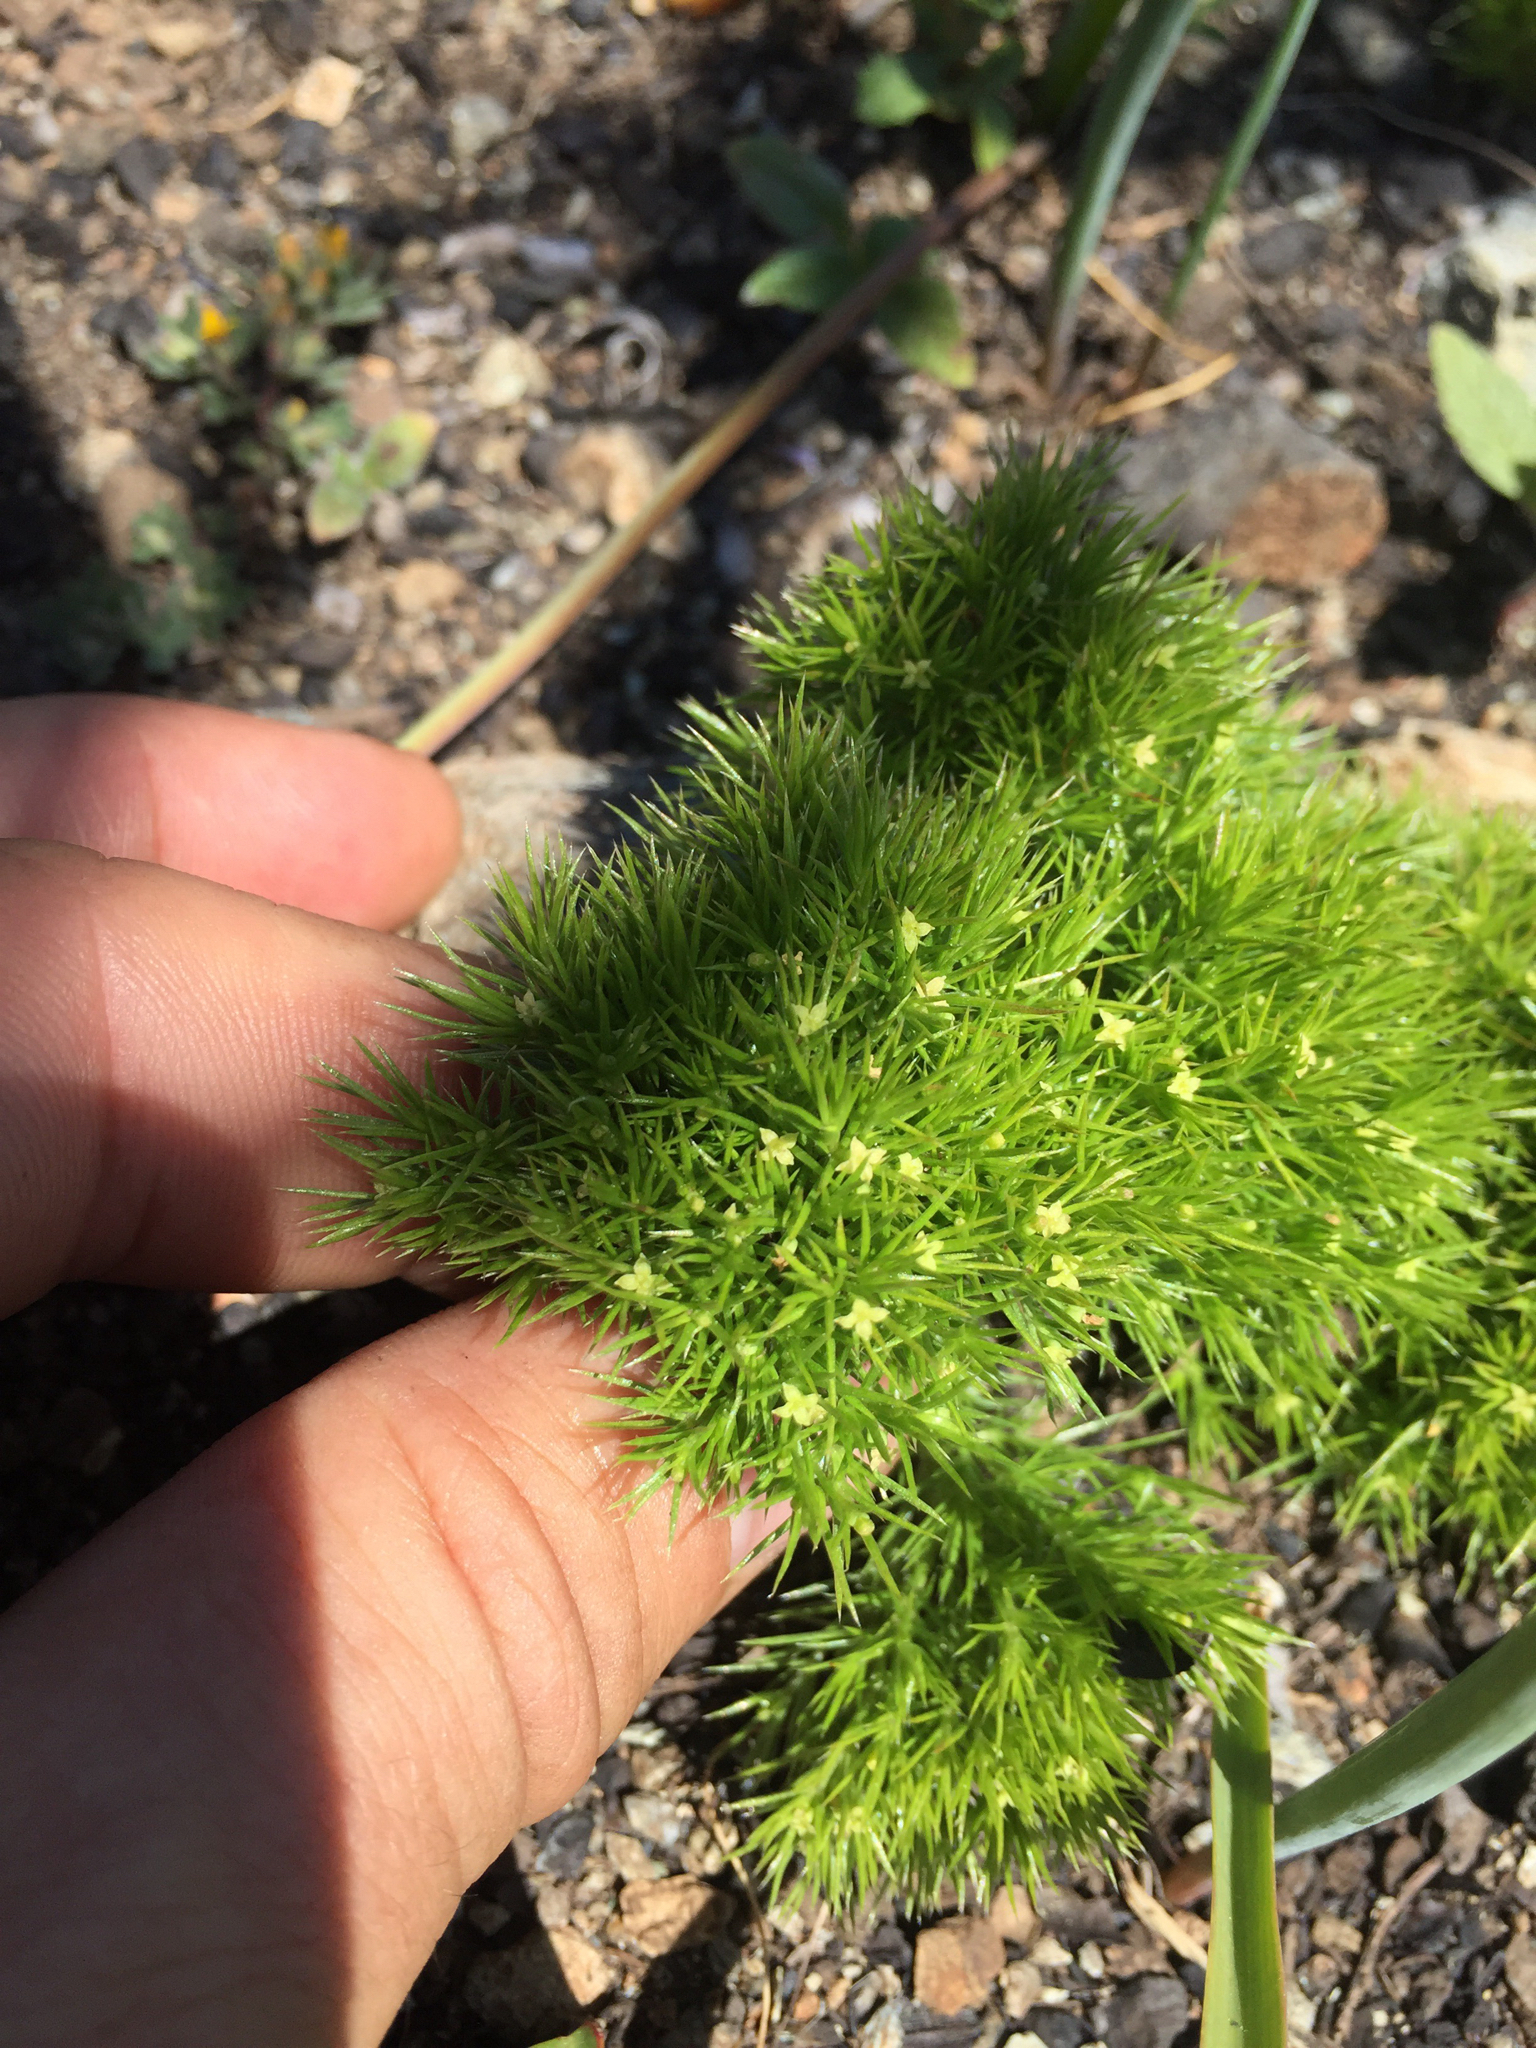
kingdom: Plantae
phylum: Tracheophyta
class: Magnoliopsida
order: Gentianales
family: Rubiaceae
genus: Galium
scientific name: Galium andrewsii
